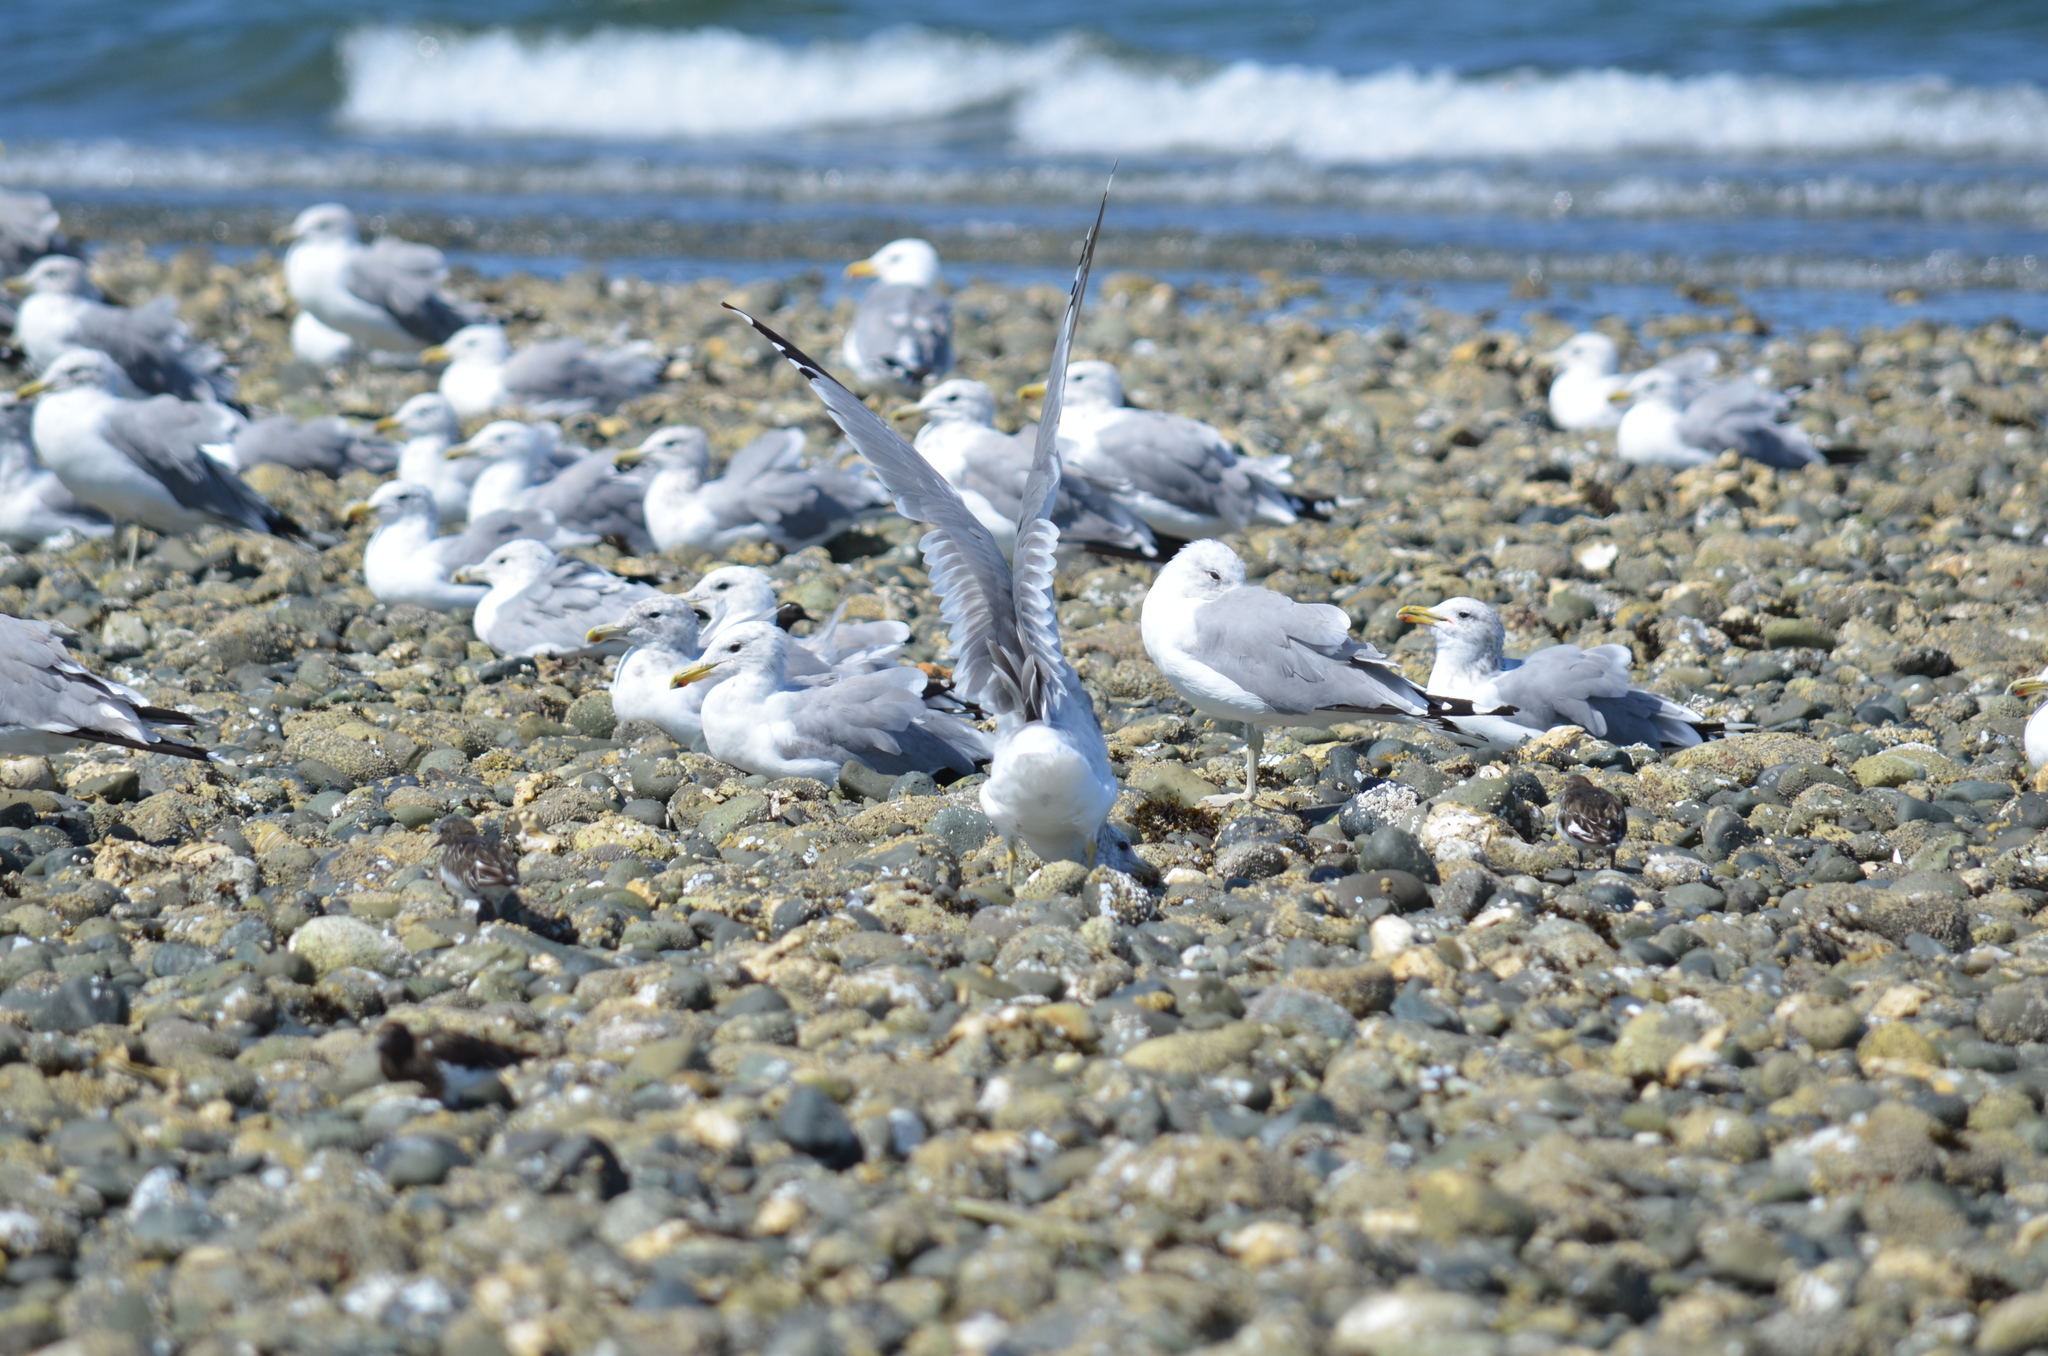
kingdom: Animalia
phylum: Chordata
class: Aves
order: Charadriiformes
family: Laridae
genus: Larus
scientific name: Larus californicus
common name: California gull
